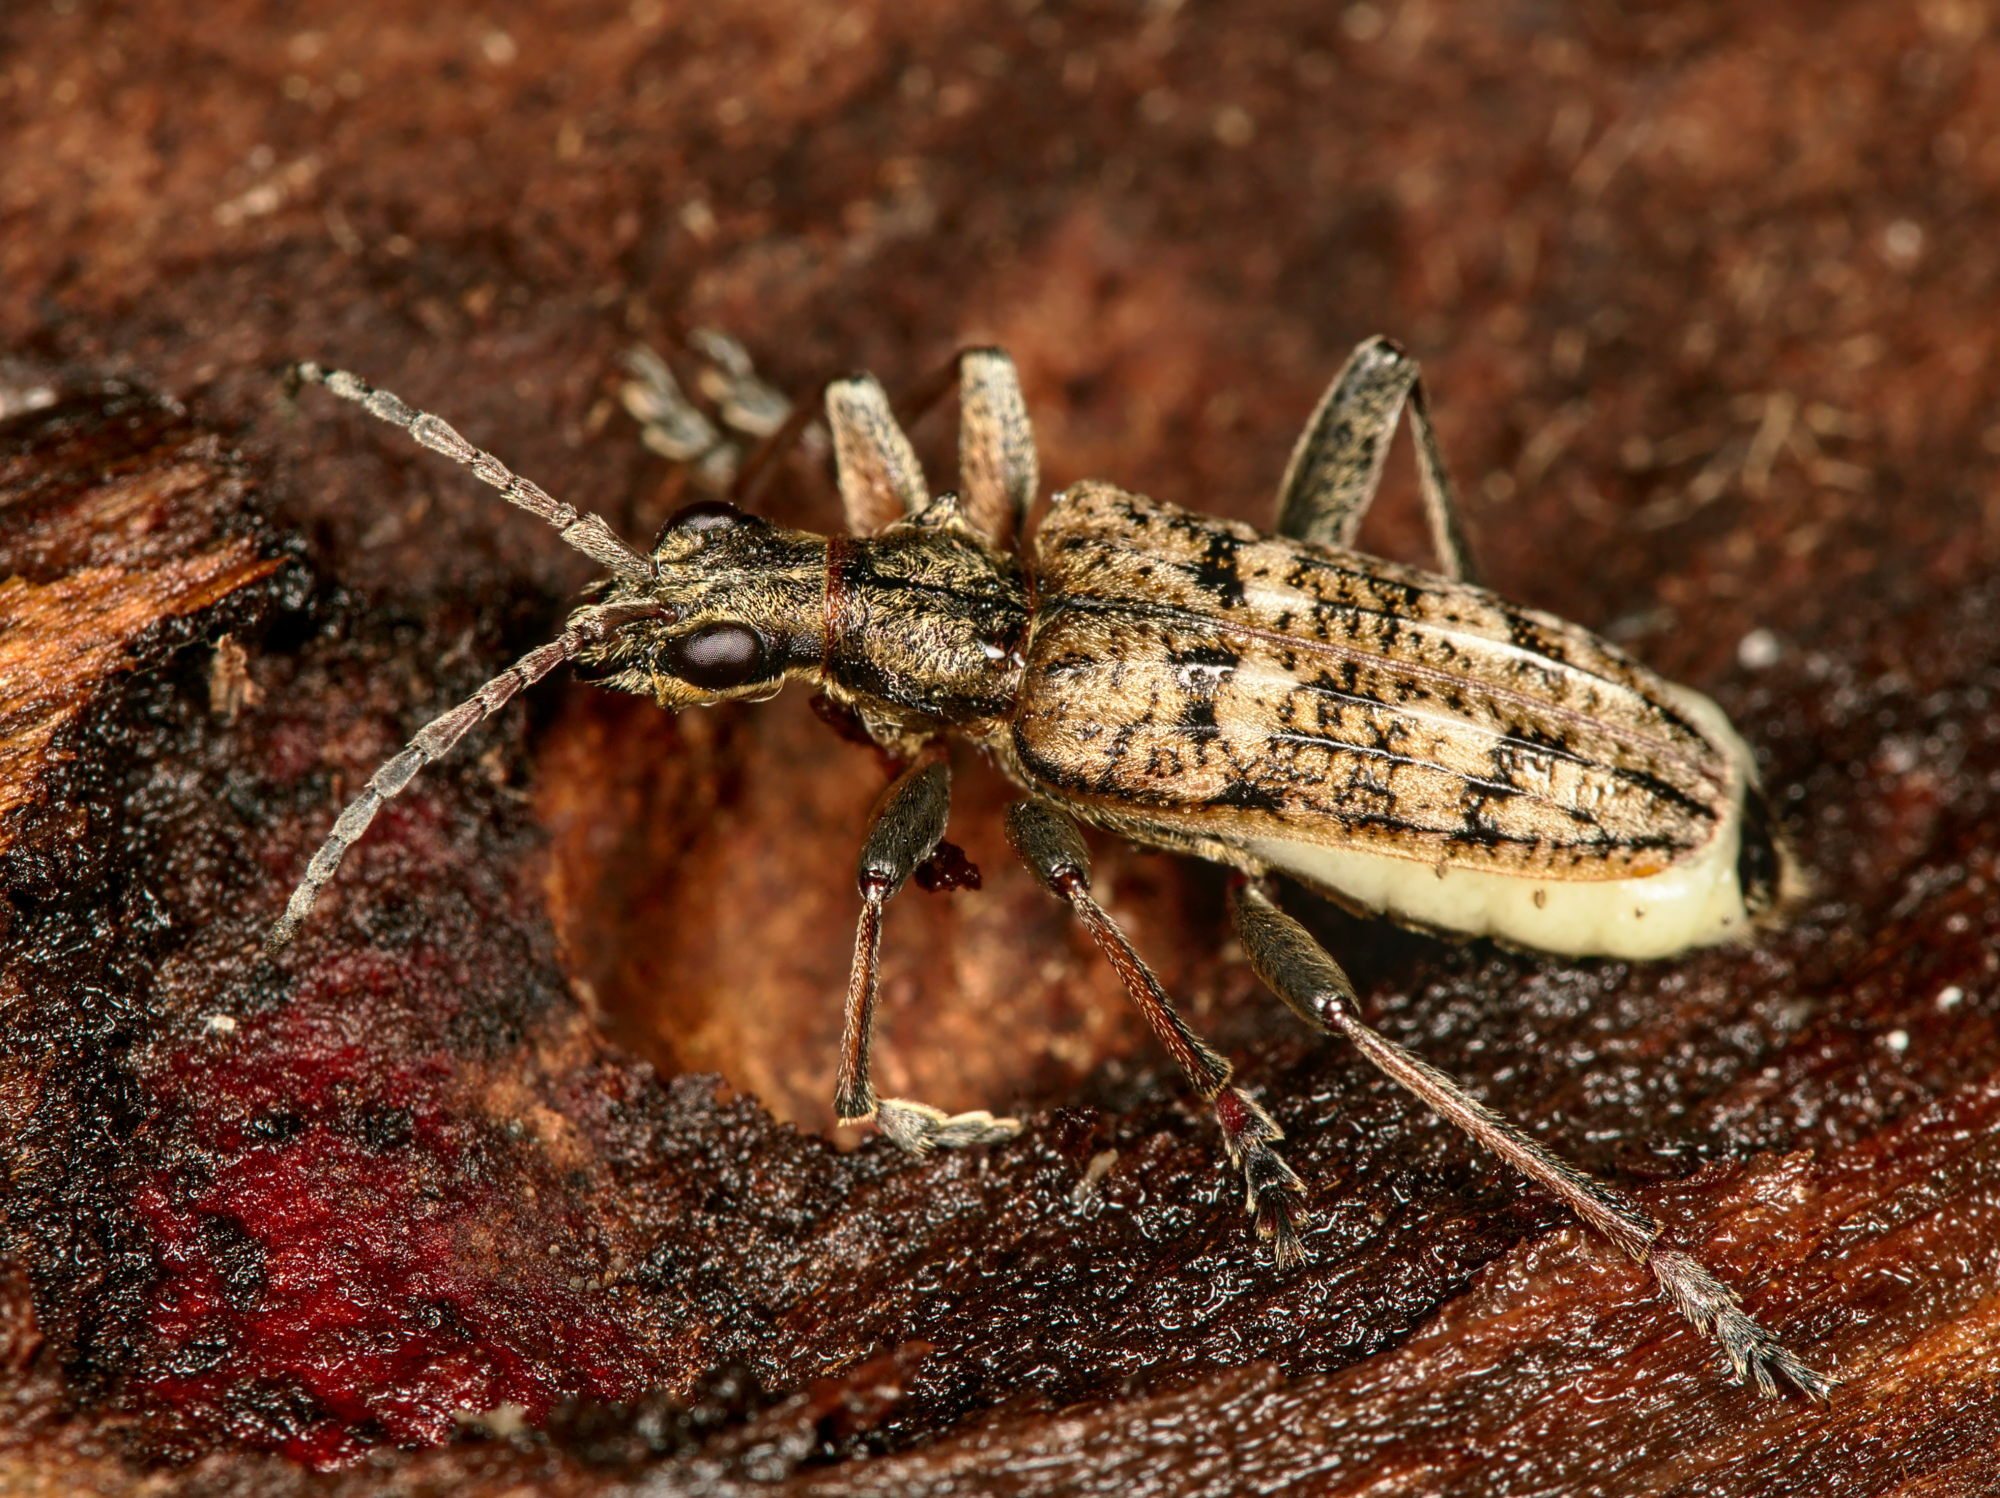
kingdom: Animalia
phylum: Arthropoda
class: Insecta
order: Coleoptera
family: Cerambycidae
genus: Rhagium
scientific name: Rhagium inquisitor
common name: Ribbed pine borer
